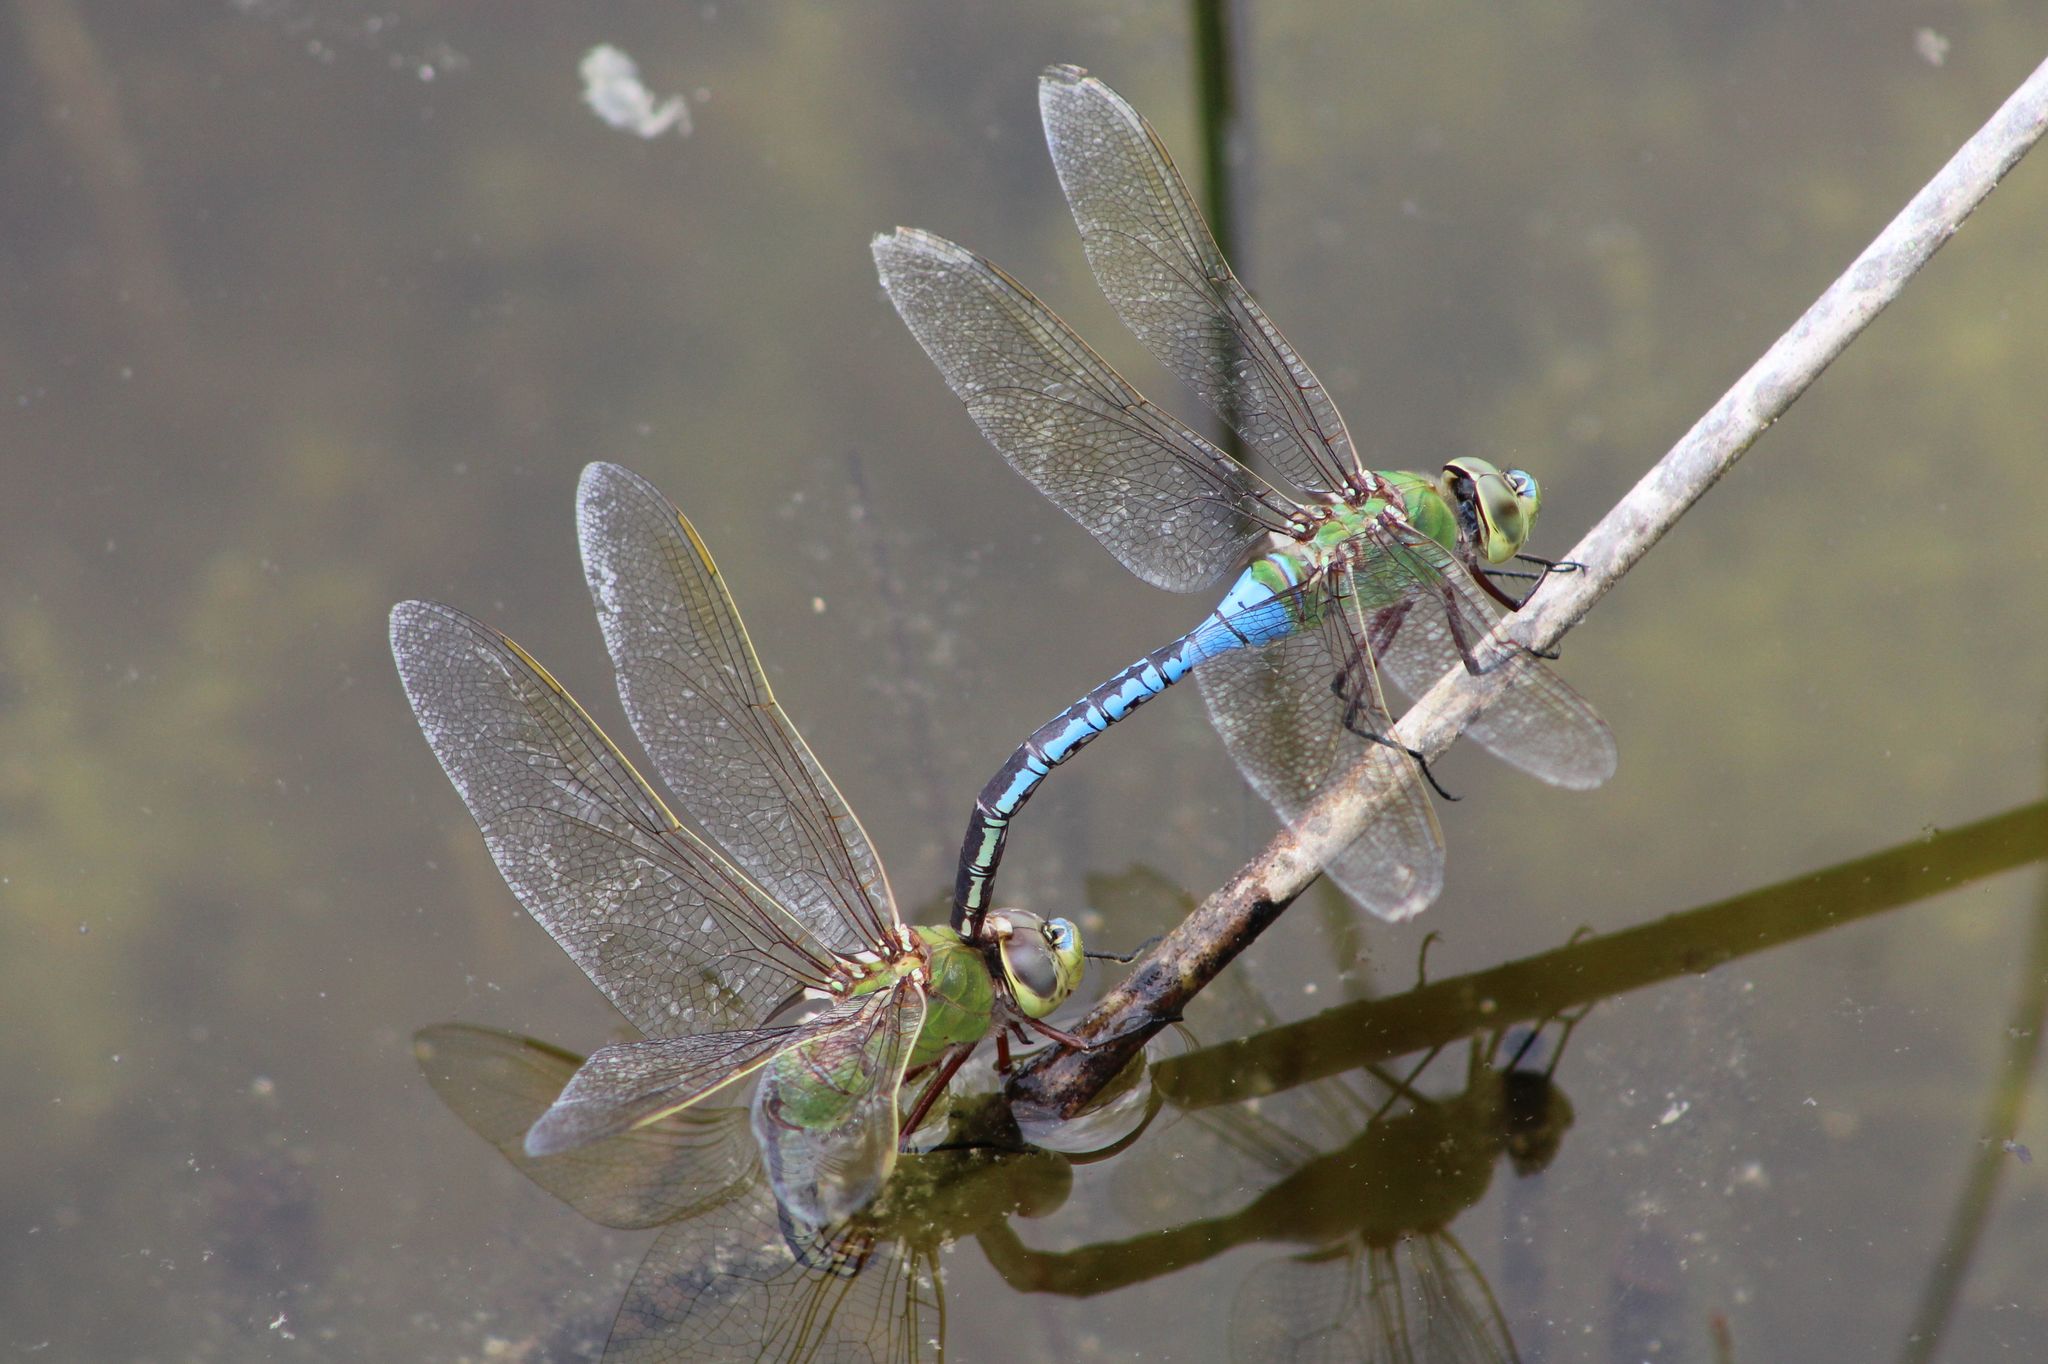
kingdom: Animalia
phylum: Arthropoda
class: Insecta
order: Odonata
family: Aeshnidae
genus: Anax
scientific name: Anax junius
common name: Common green darner
